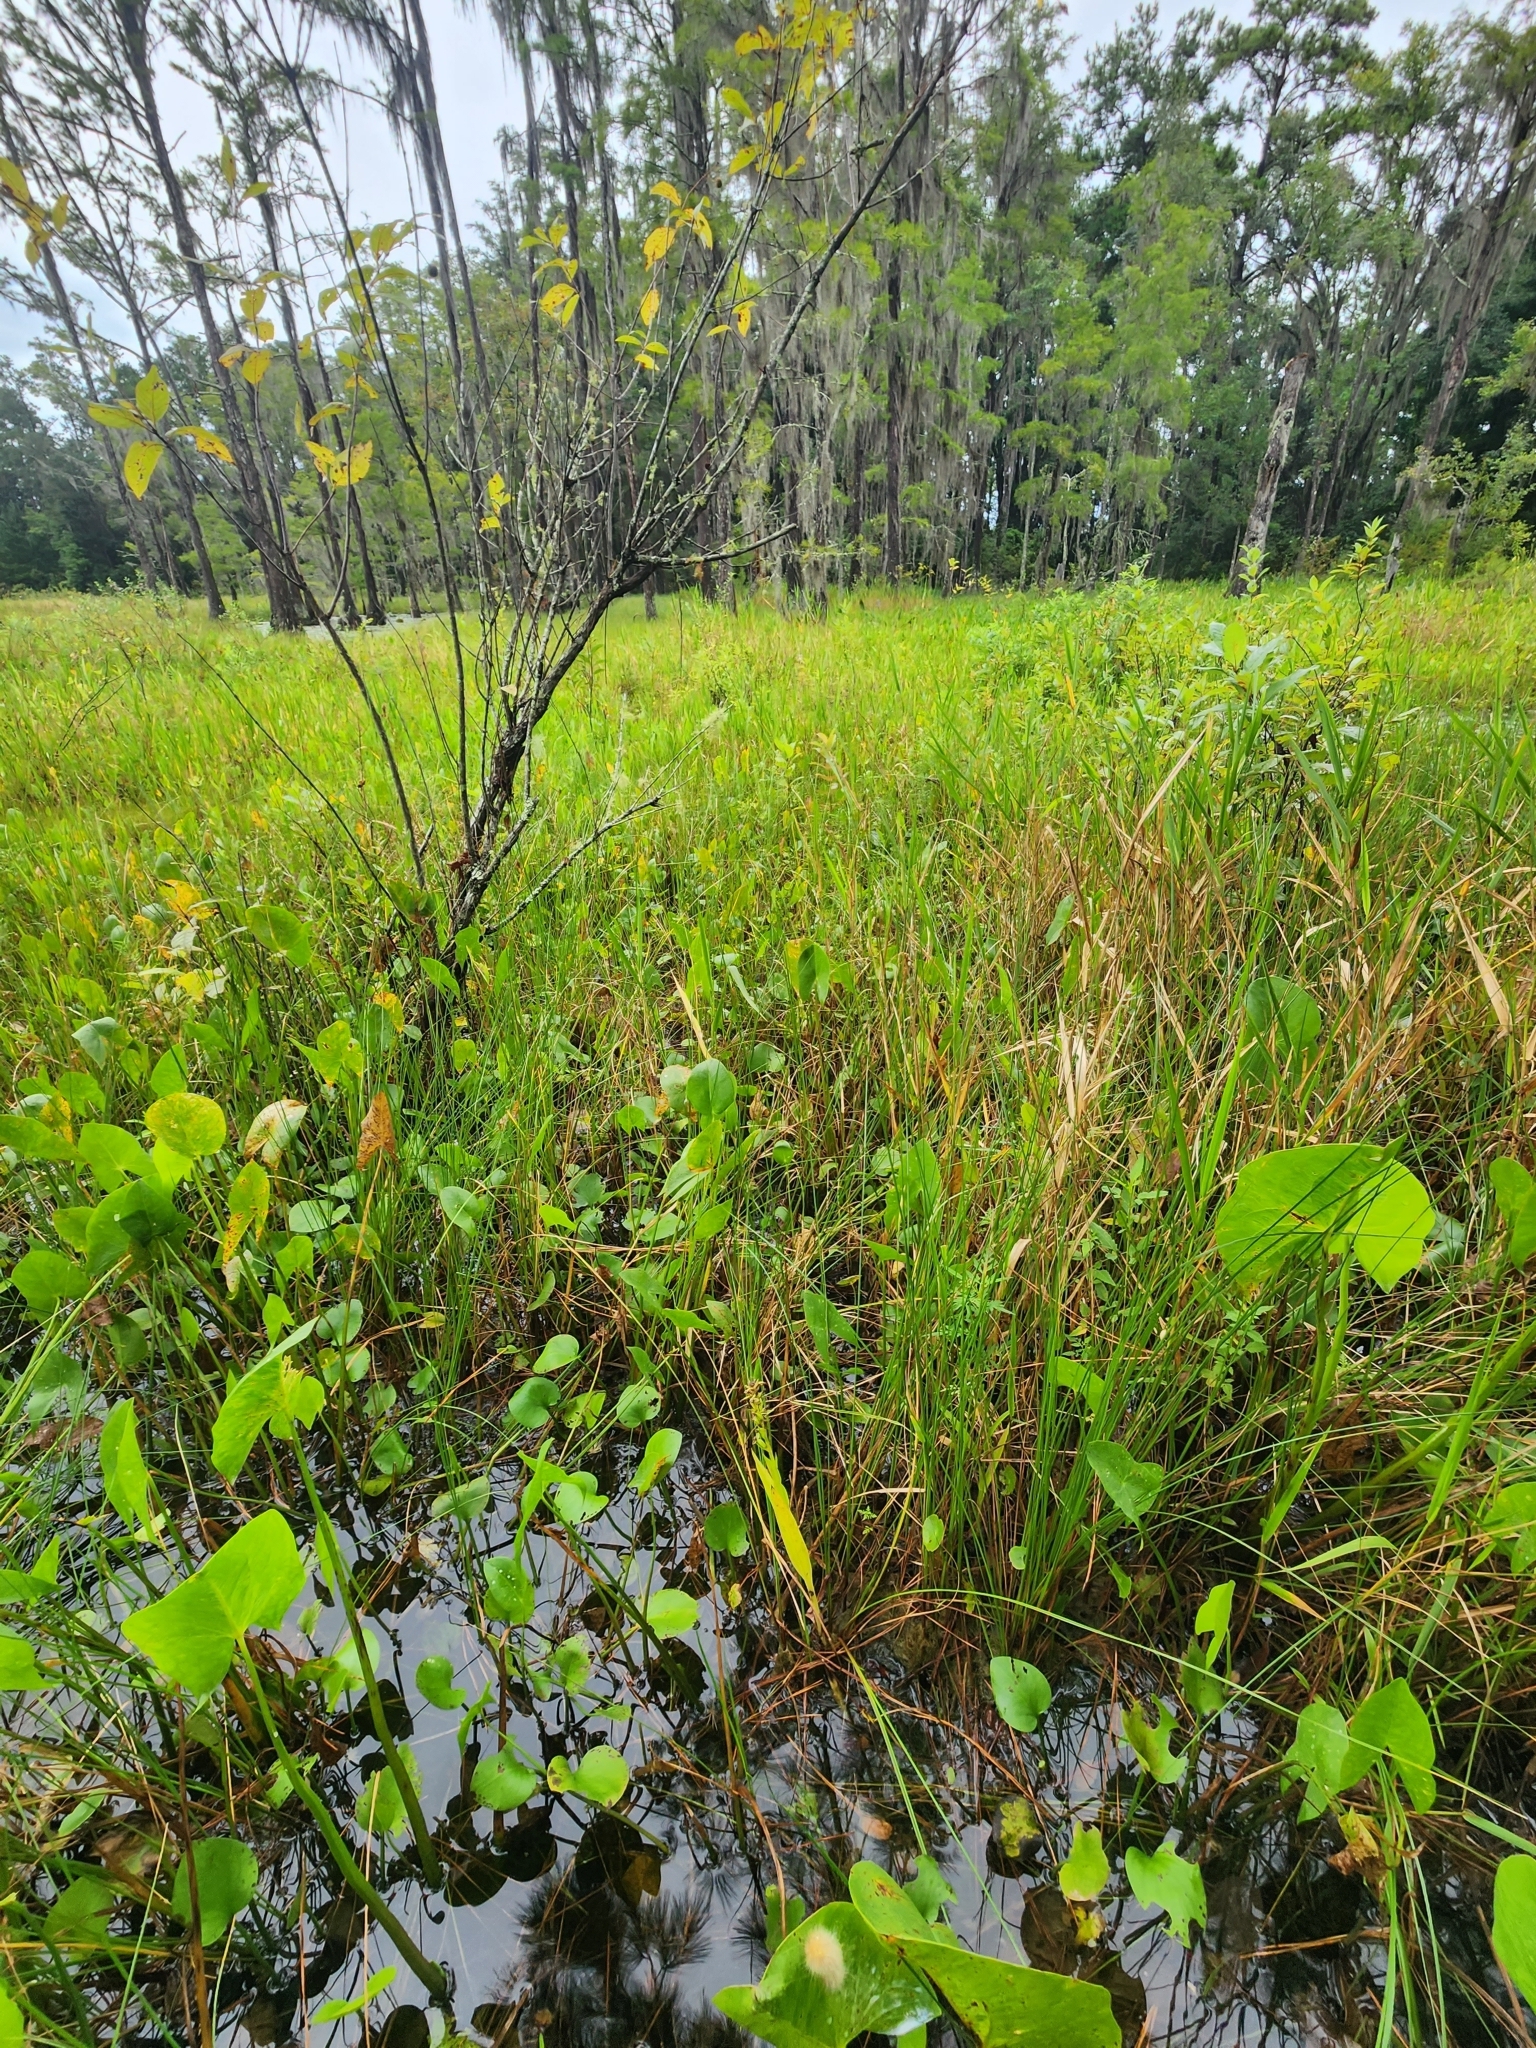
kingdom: Plantae
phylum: Tracheophyta
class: Liliopsida
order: Asparagales
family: Orchidaceae
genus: Habenaria
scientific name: Habenaria repens
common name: Water orchid
